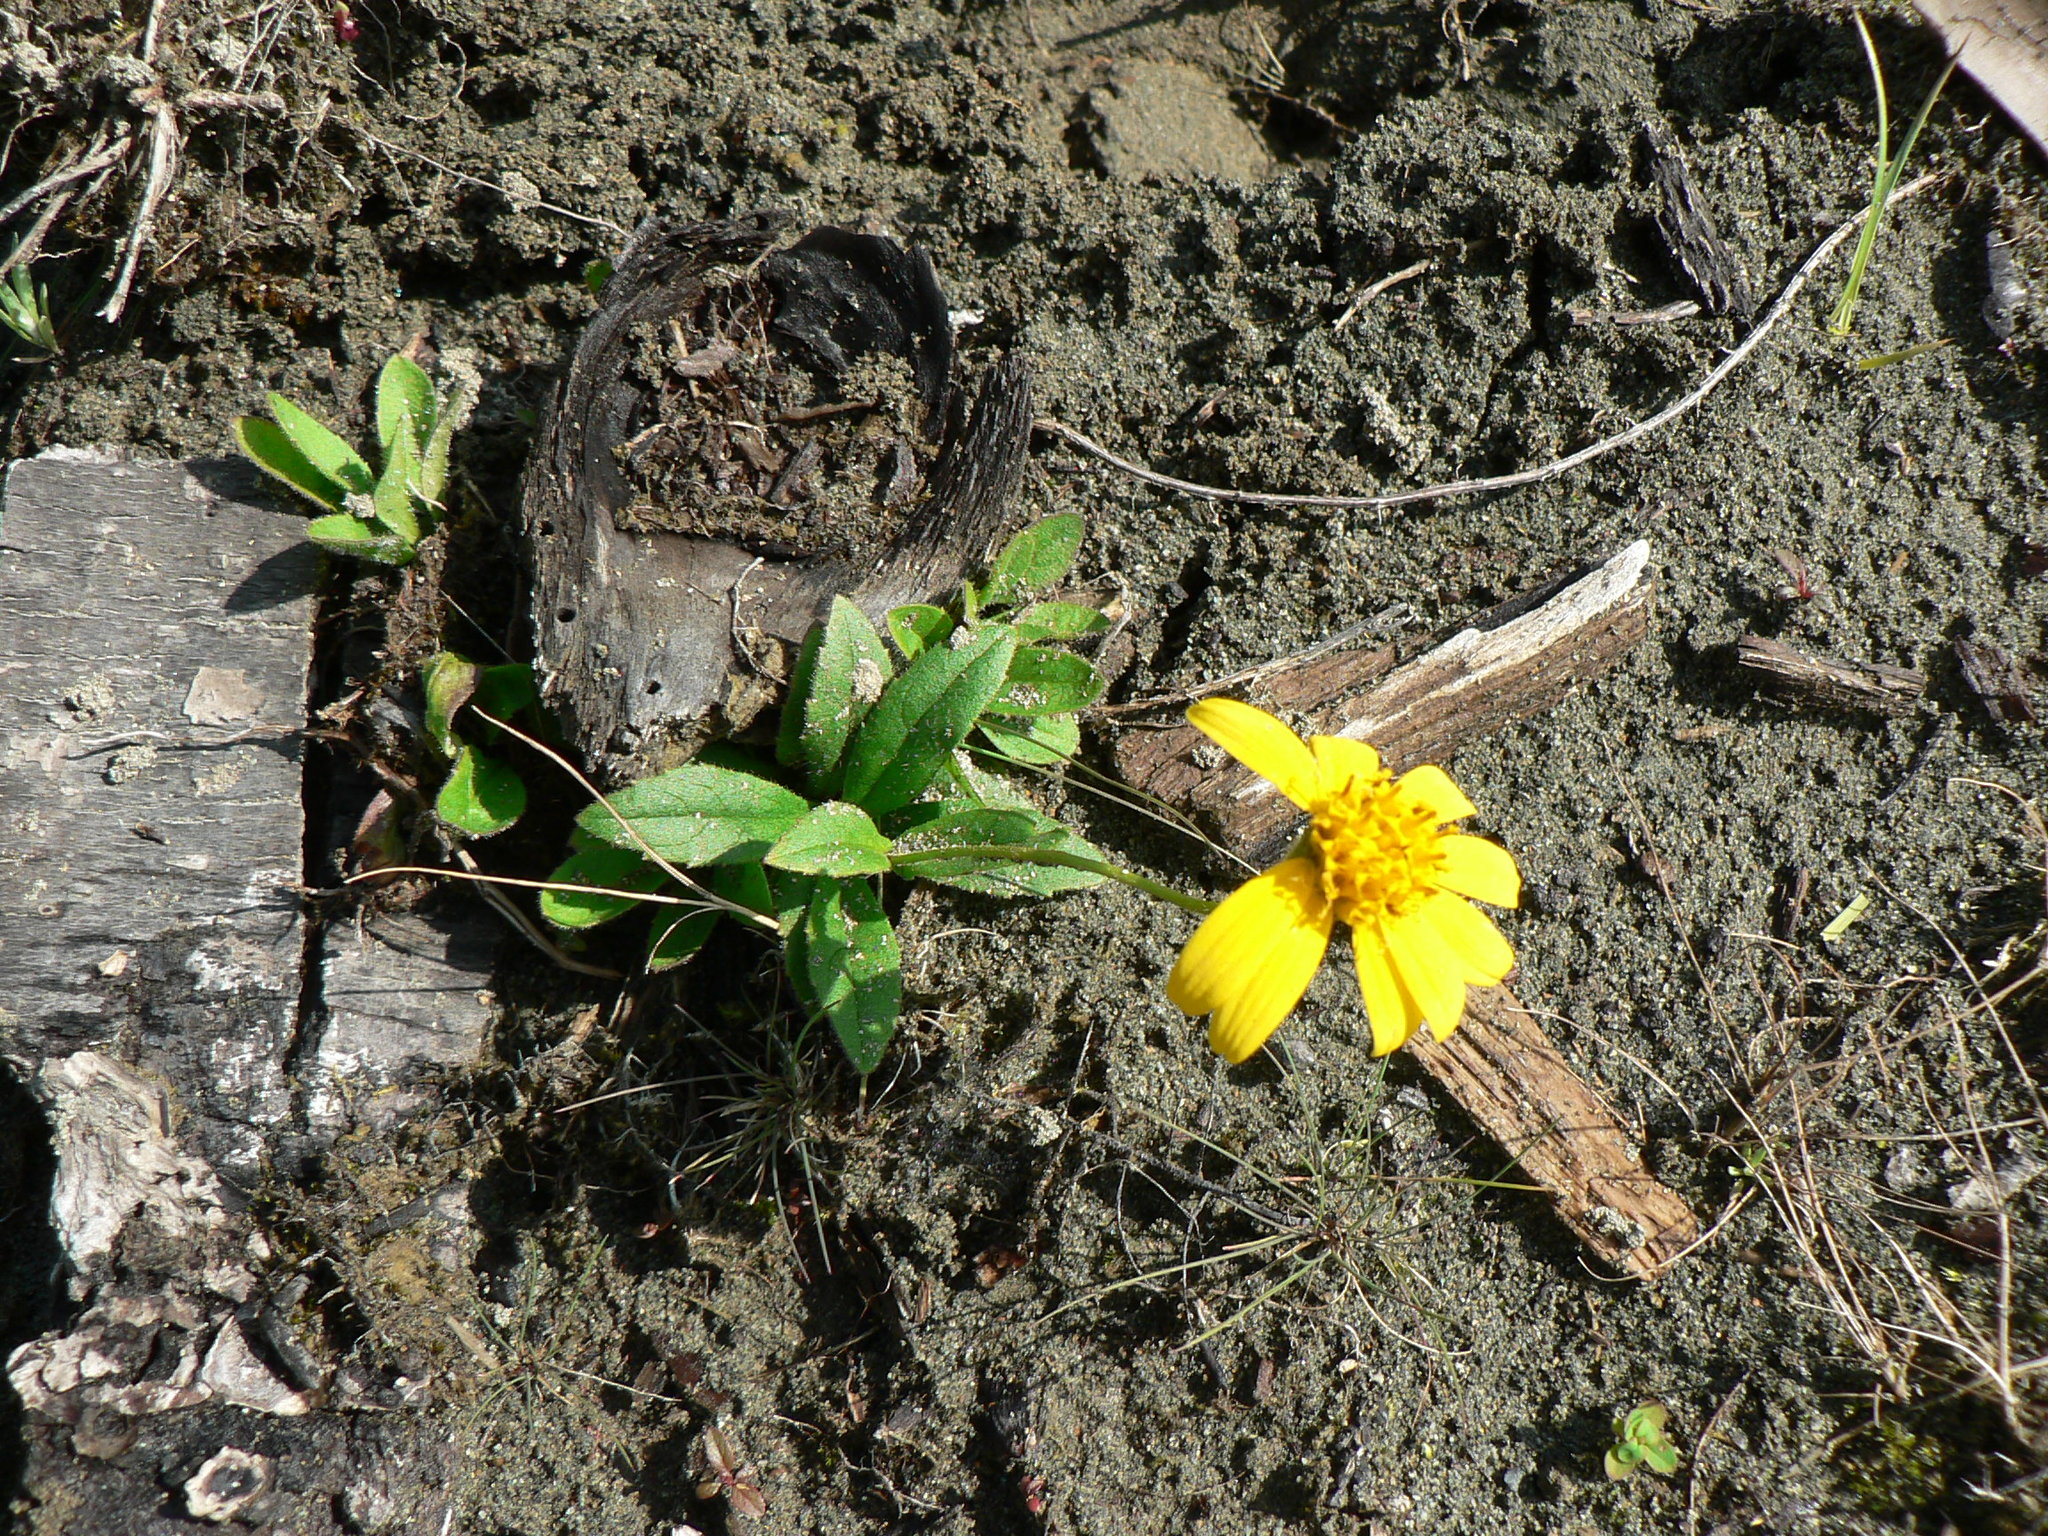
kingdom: Plantae
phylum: Tracheophyta
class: Magnoliopsida
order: Asterales
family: Asteraceae
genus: Arnica
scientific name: Arnica latifolia
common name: Arnica
